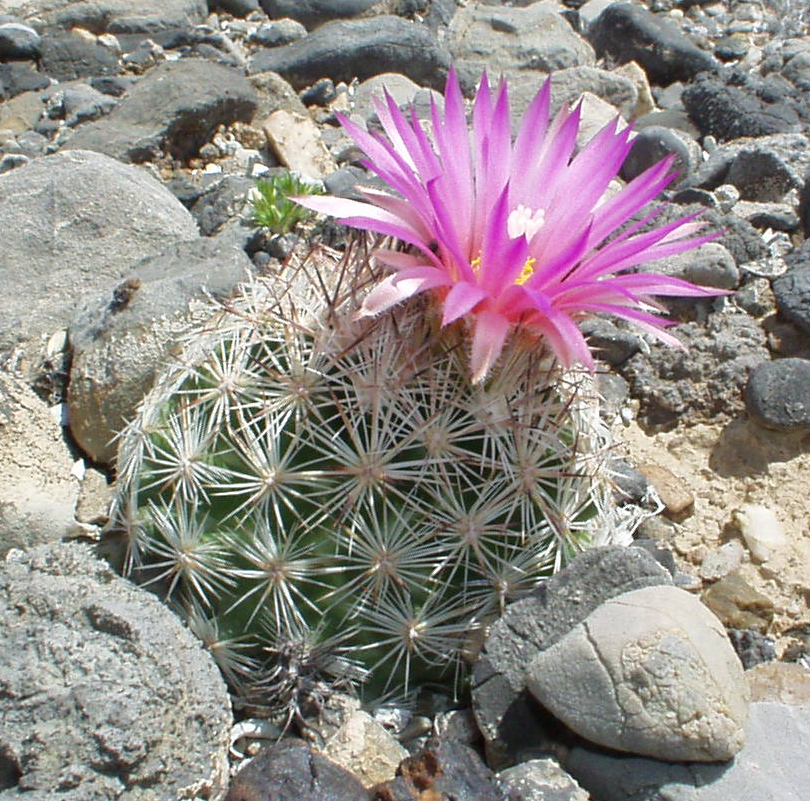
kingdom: Plantae
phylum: Tracheophyta
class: Magnoliopsida
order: Caryophyllales
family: Cactaceae
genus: Pelecyphora
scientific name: Pelecyphora vivipara
